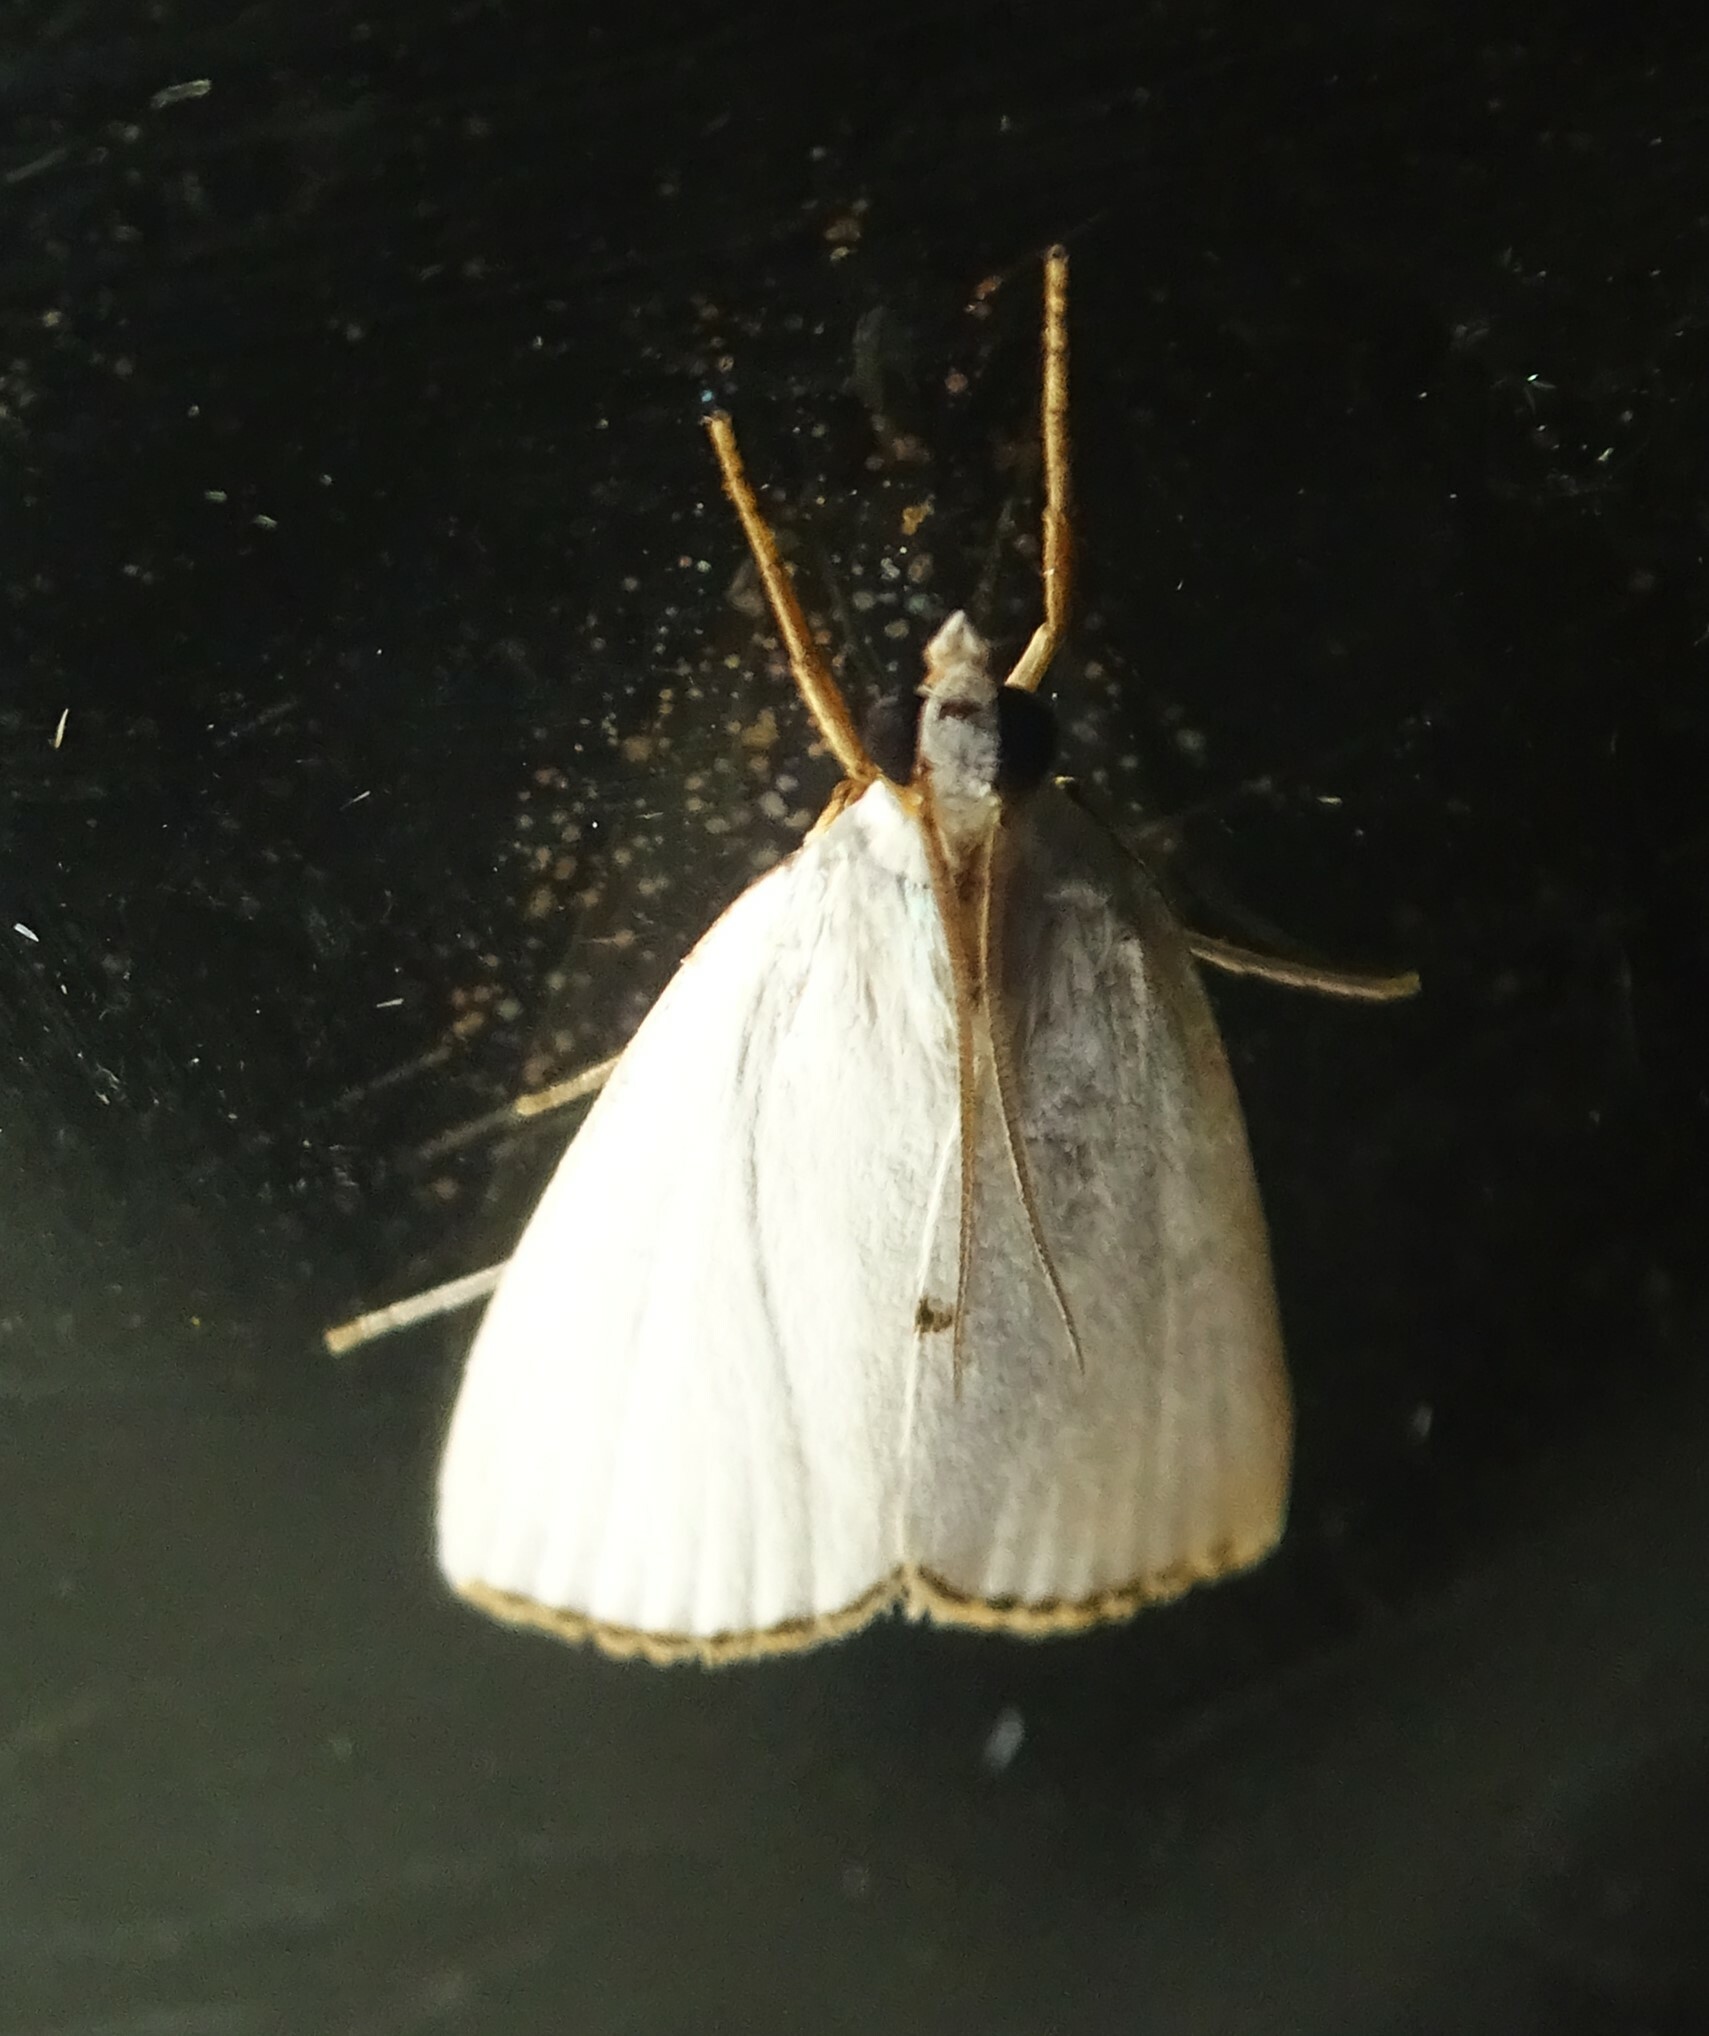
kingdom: Animalia
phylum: Arthropoda
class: Insecta
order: Lepidoptera
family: Crambidae
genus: Argyria
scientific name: Argyria nivalis
